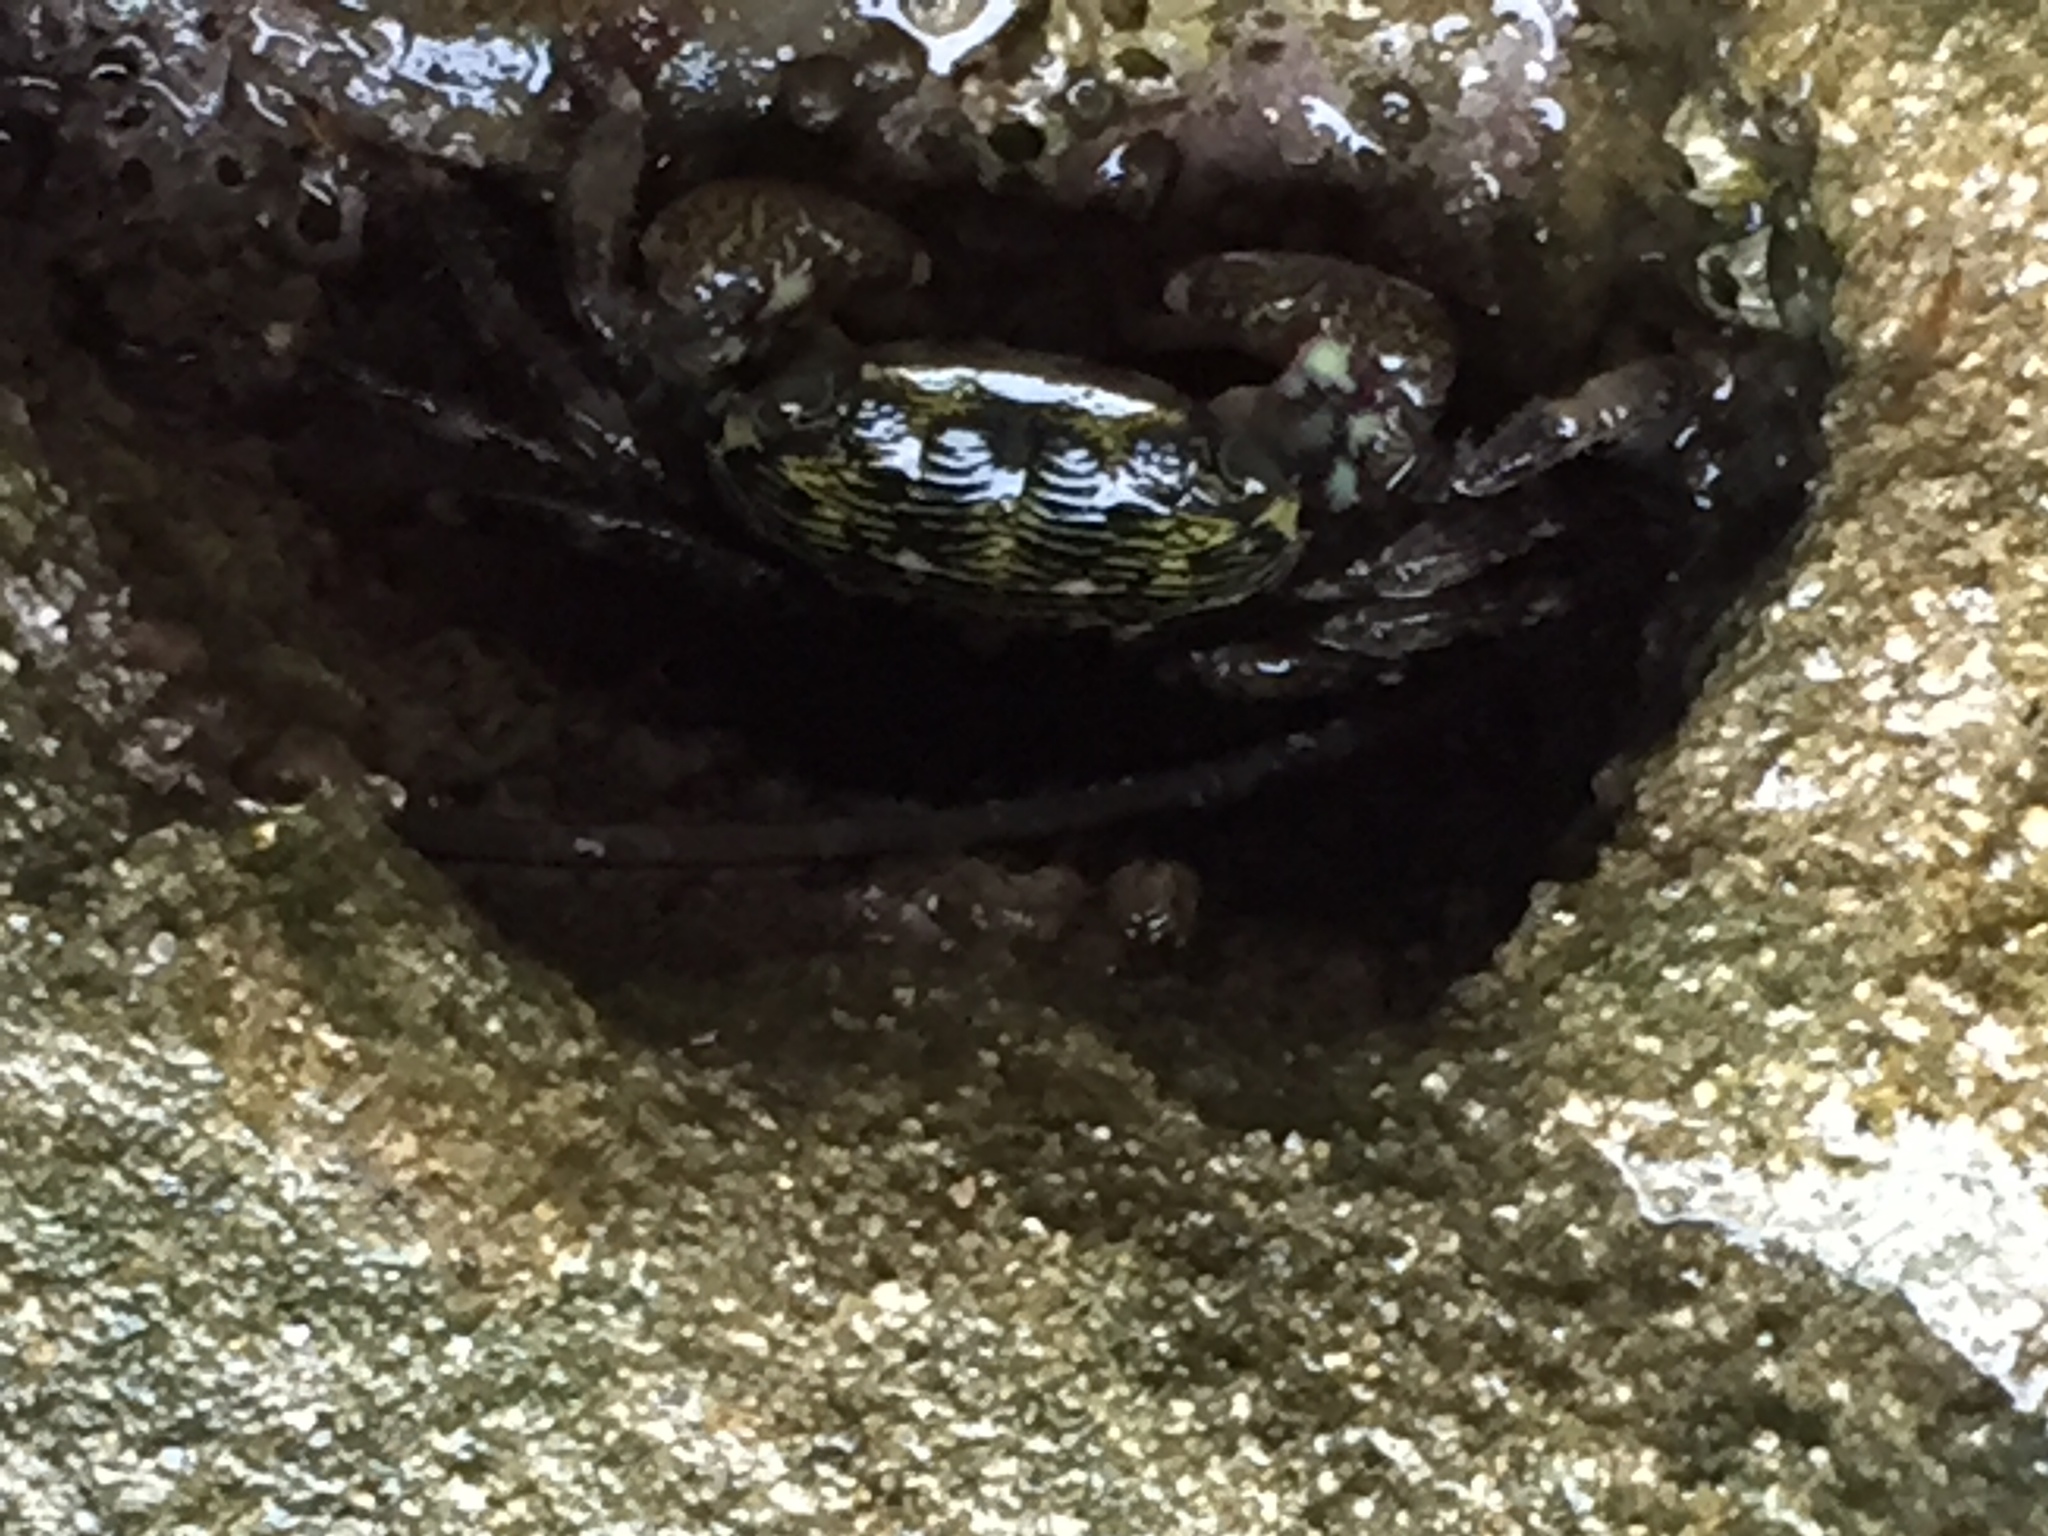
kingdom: Animalia
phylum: Arthropoda
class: Malacostraca
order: Decapoda
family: Grapsidae
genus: Pachygrapsus
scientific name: Pachygrapsus crassipes
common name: Striped shore crab
